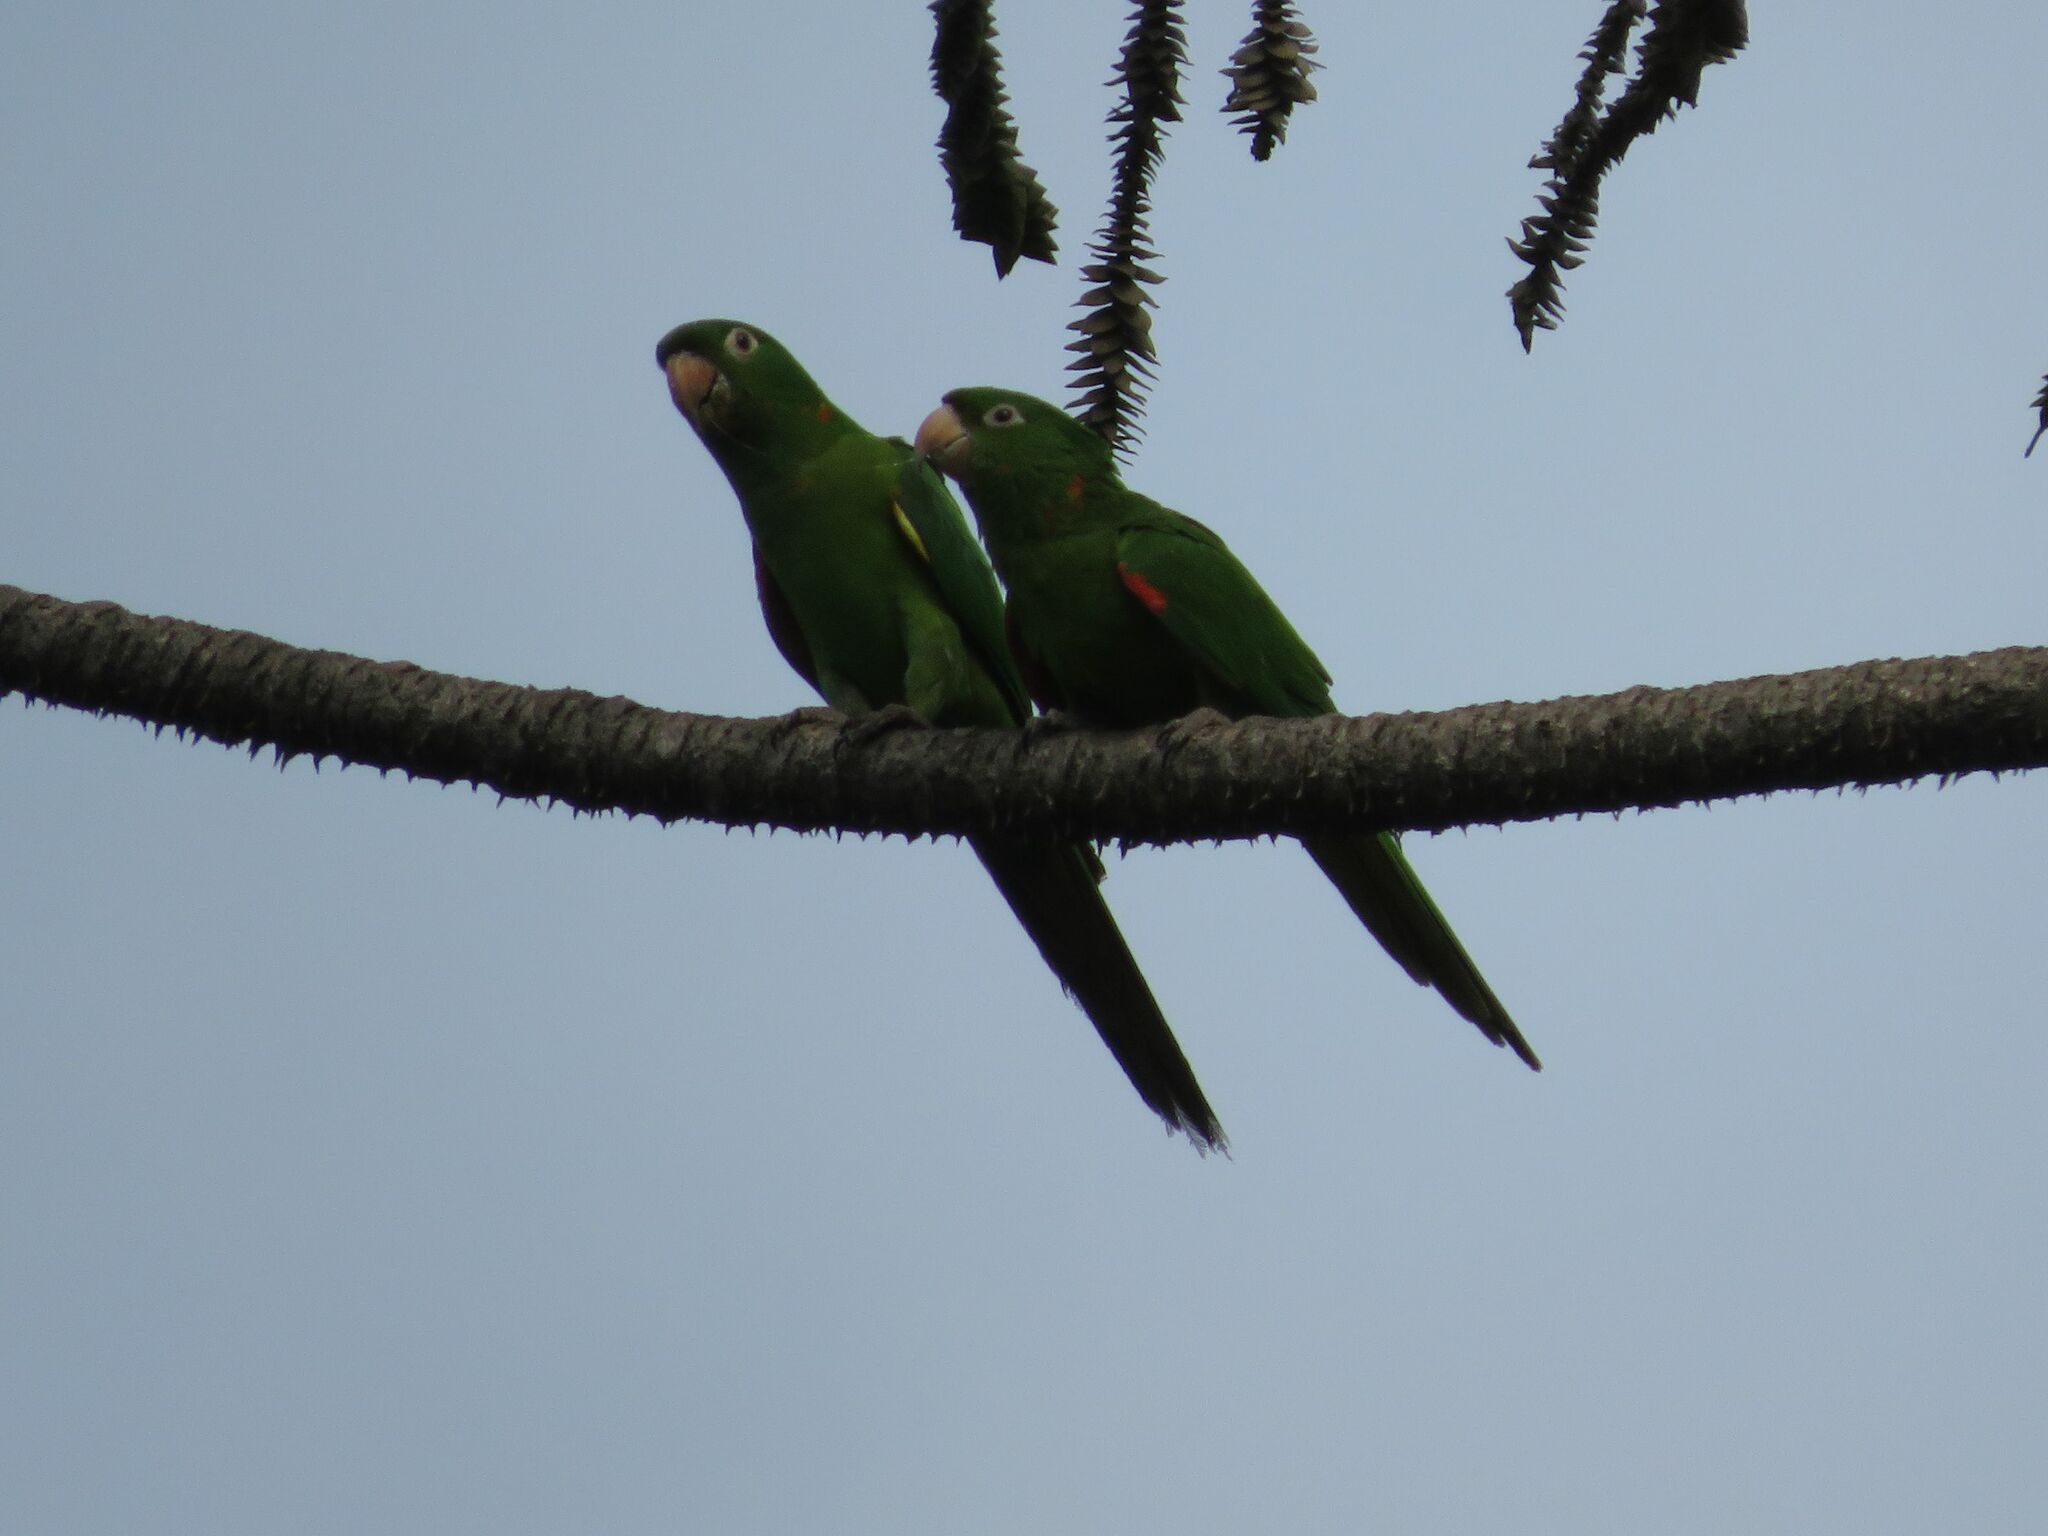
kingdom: Animalia
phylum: Chordata
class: Aves
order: Psittaciformes
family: Psittacidae
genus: Aratinga
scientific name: Aratinga leucophthalma
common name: White-eyed parakeet
